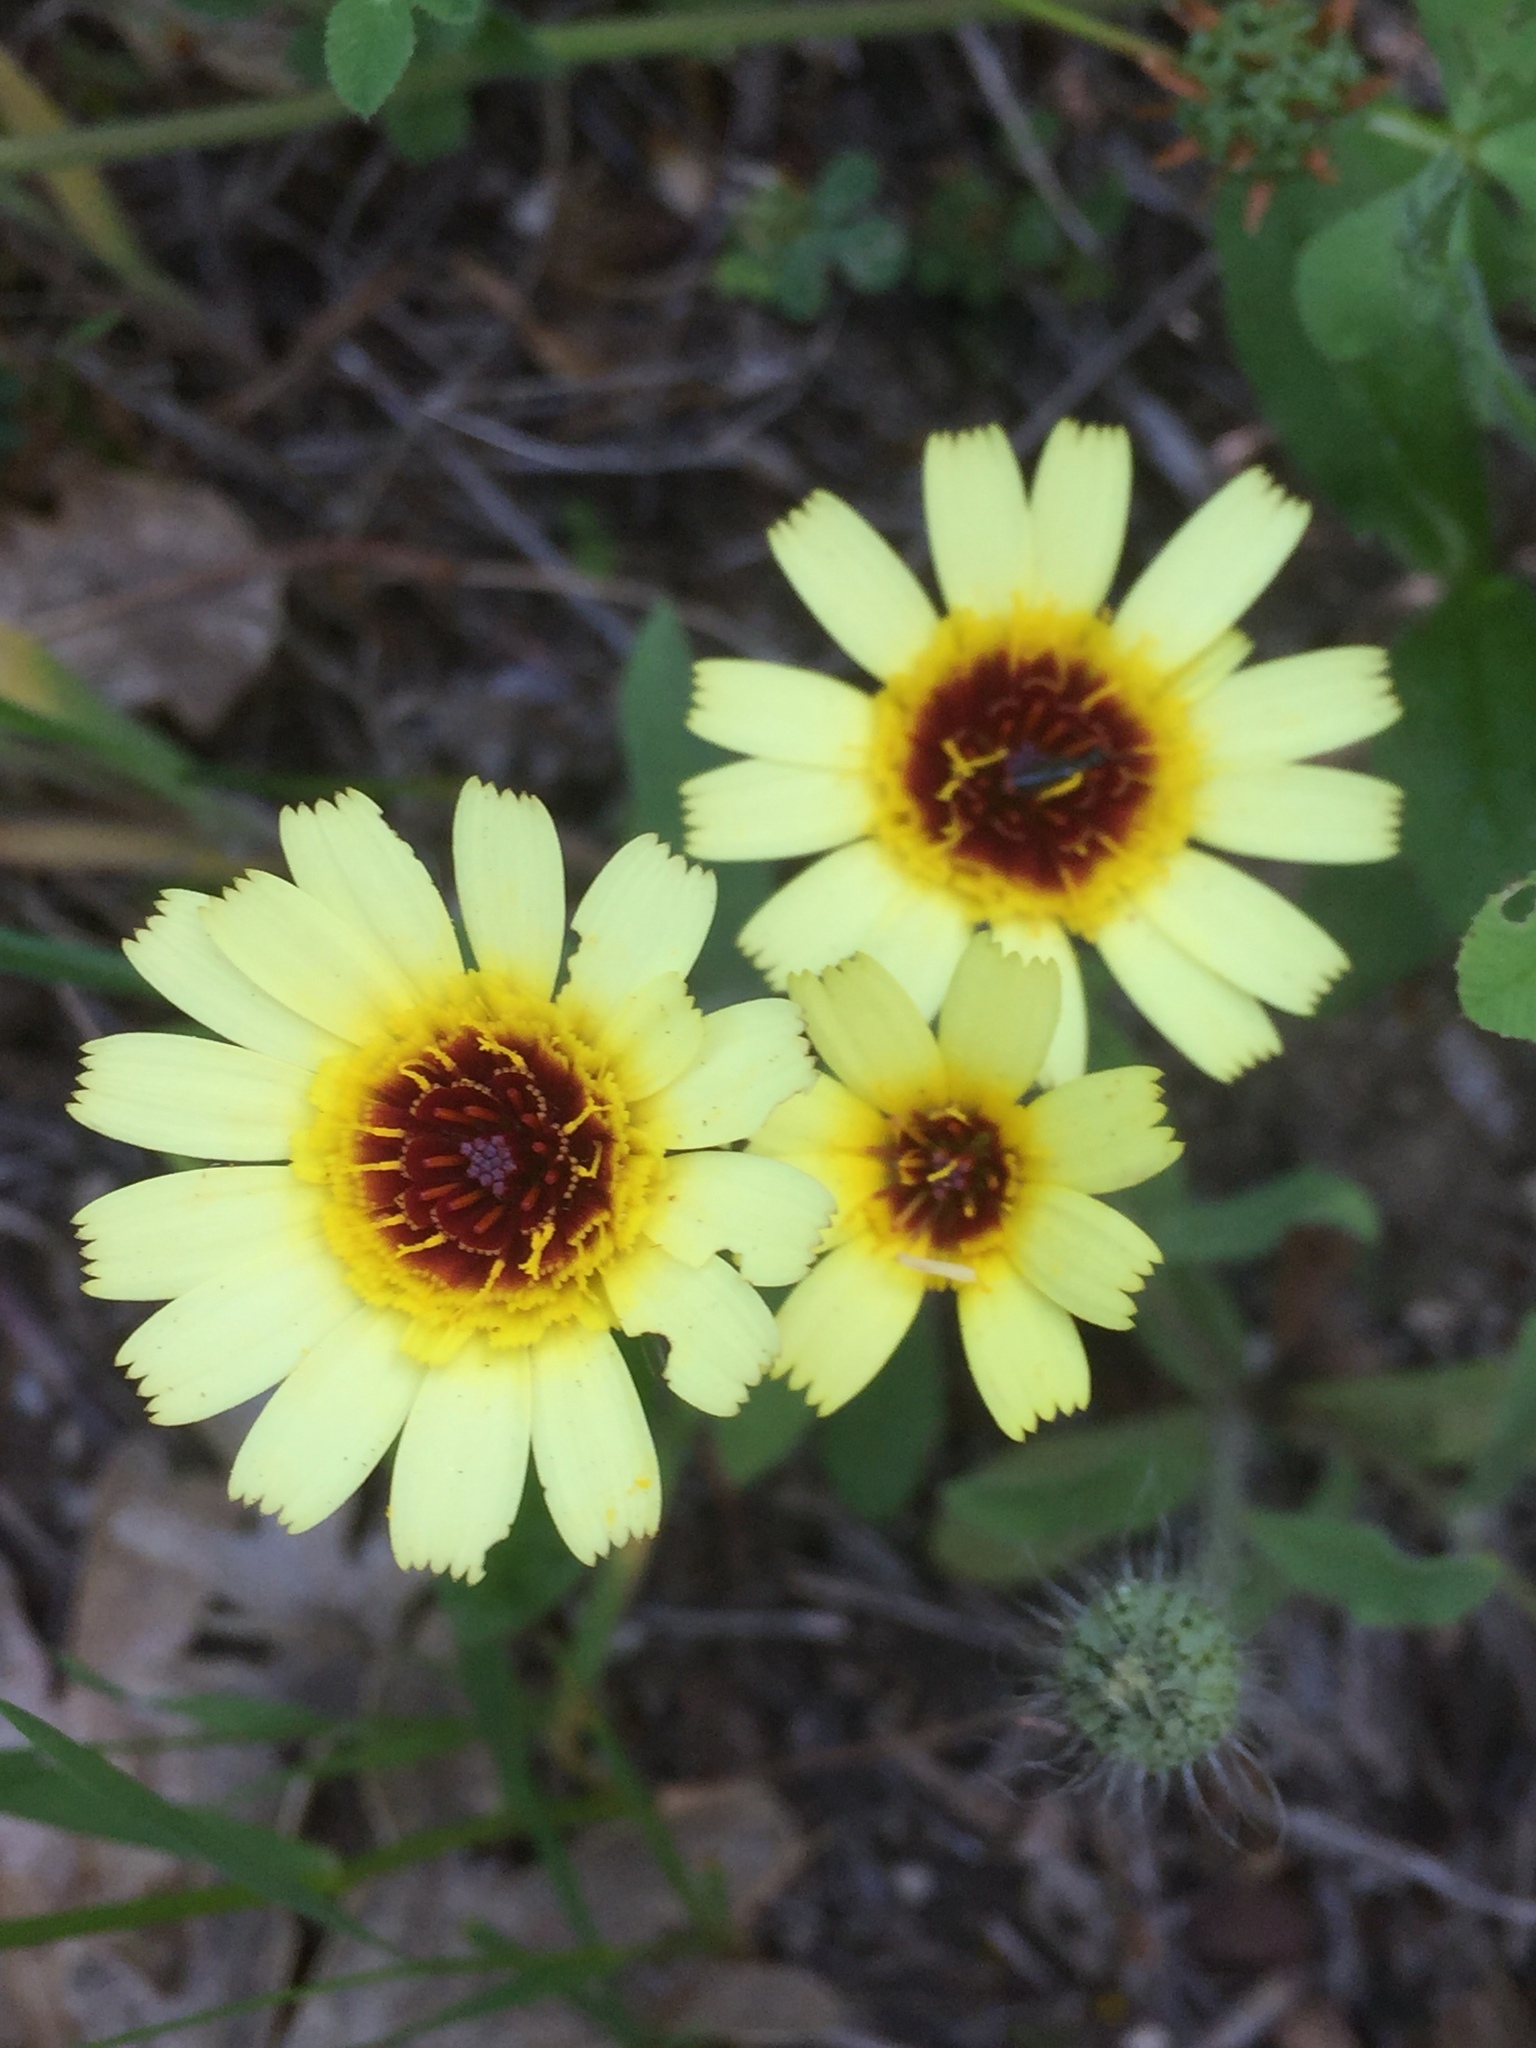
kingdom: Plantae
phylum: Tracheophyta
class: Magnoliopsida
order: Asterales
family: Asteraceae
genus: Hispidella
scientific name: Hispidella hispanica
